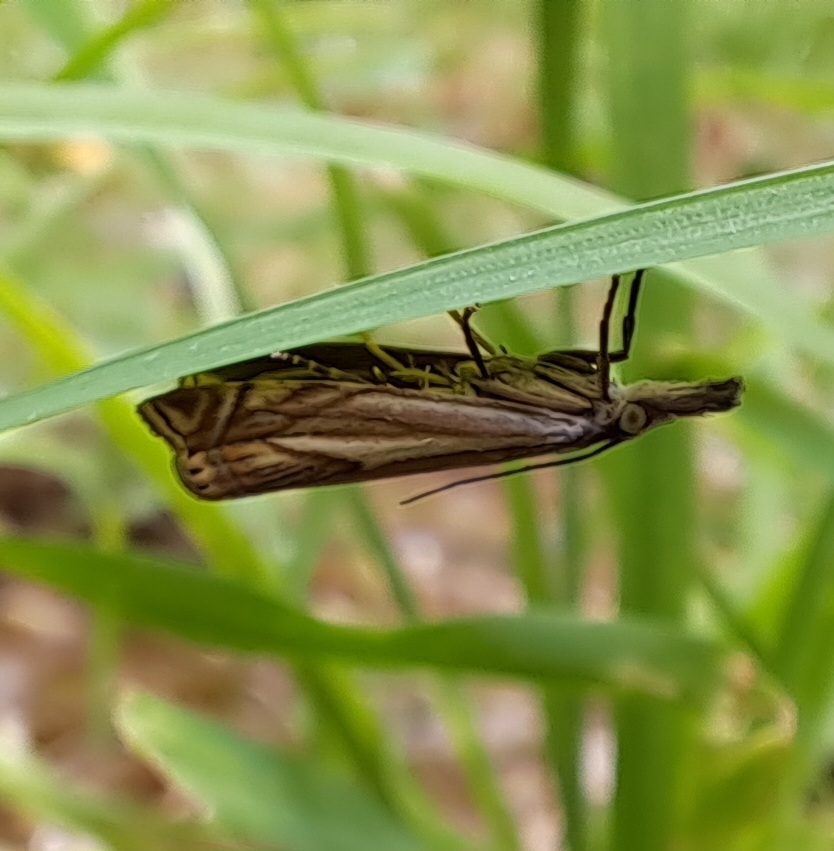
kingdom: Animalia
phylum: Arthropoda
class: Insecta
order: Lepidoptera
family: Crambidae
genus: Crambus
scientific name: Crambus nemorella
